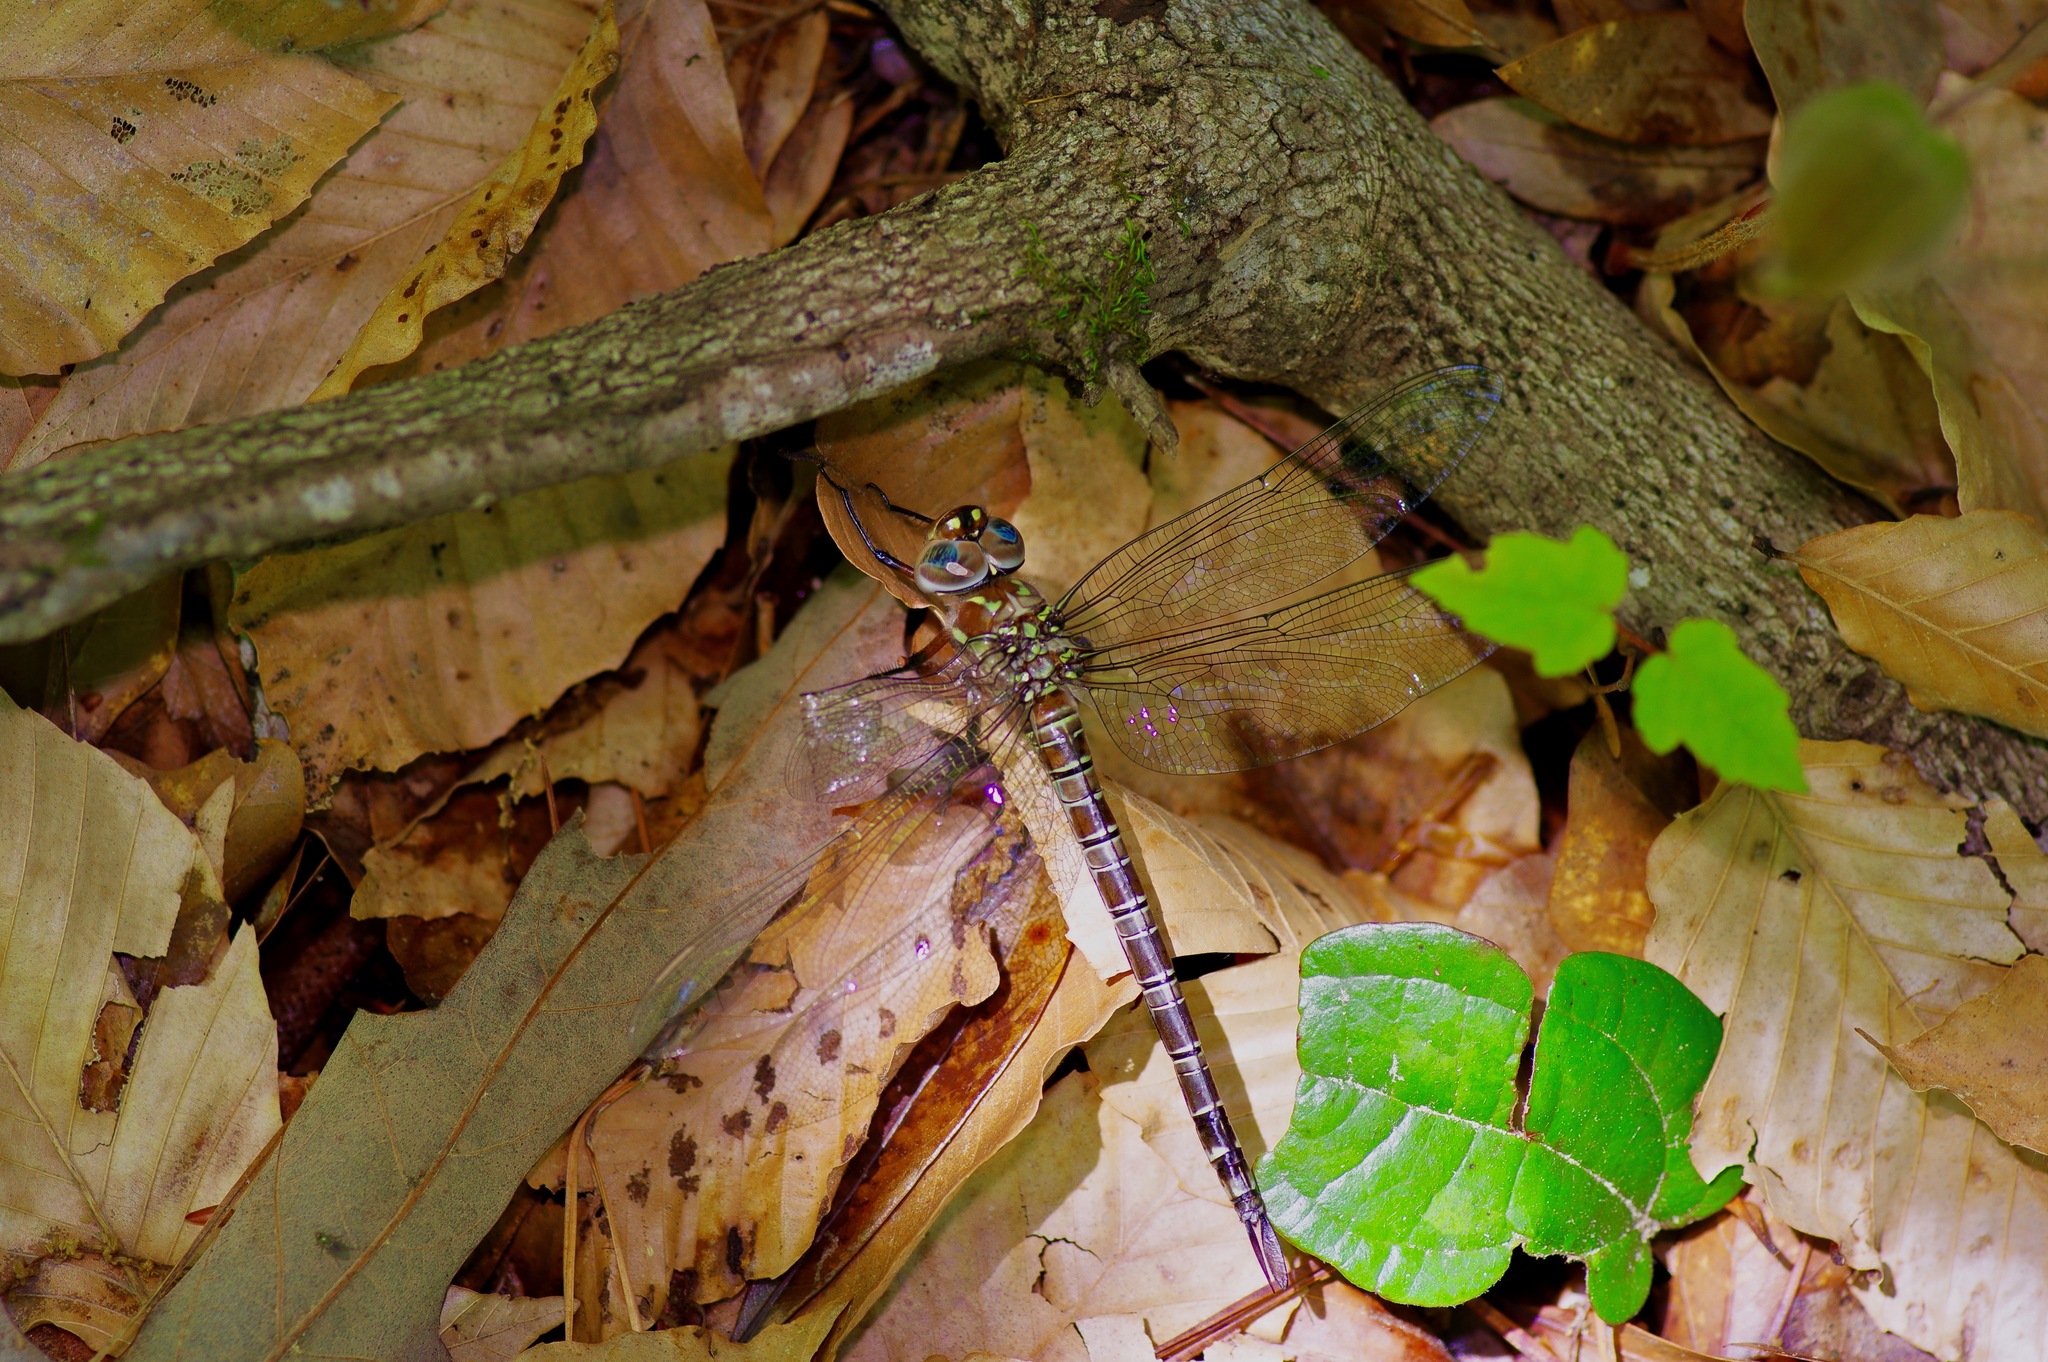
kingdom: Animalia
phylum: Arthropoda
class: Insecta
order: Odonata
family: Aeshnidae
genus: Epiaeschna
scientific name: Epiaeschna heros
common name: Swamp darner
